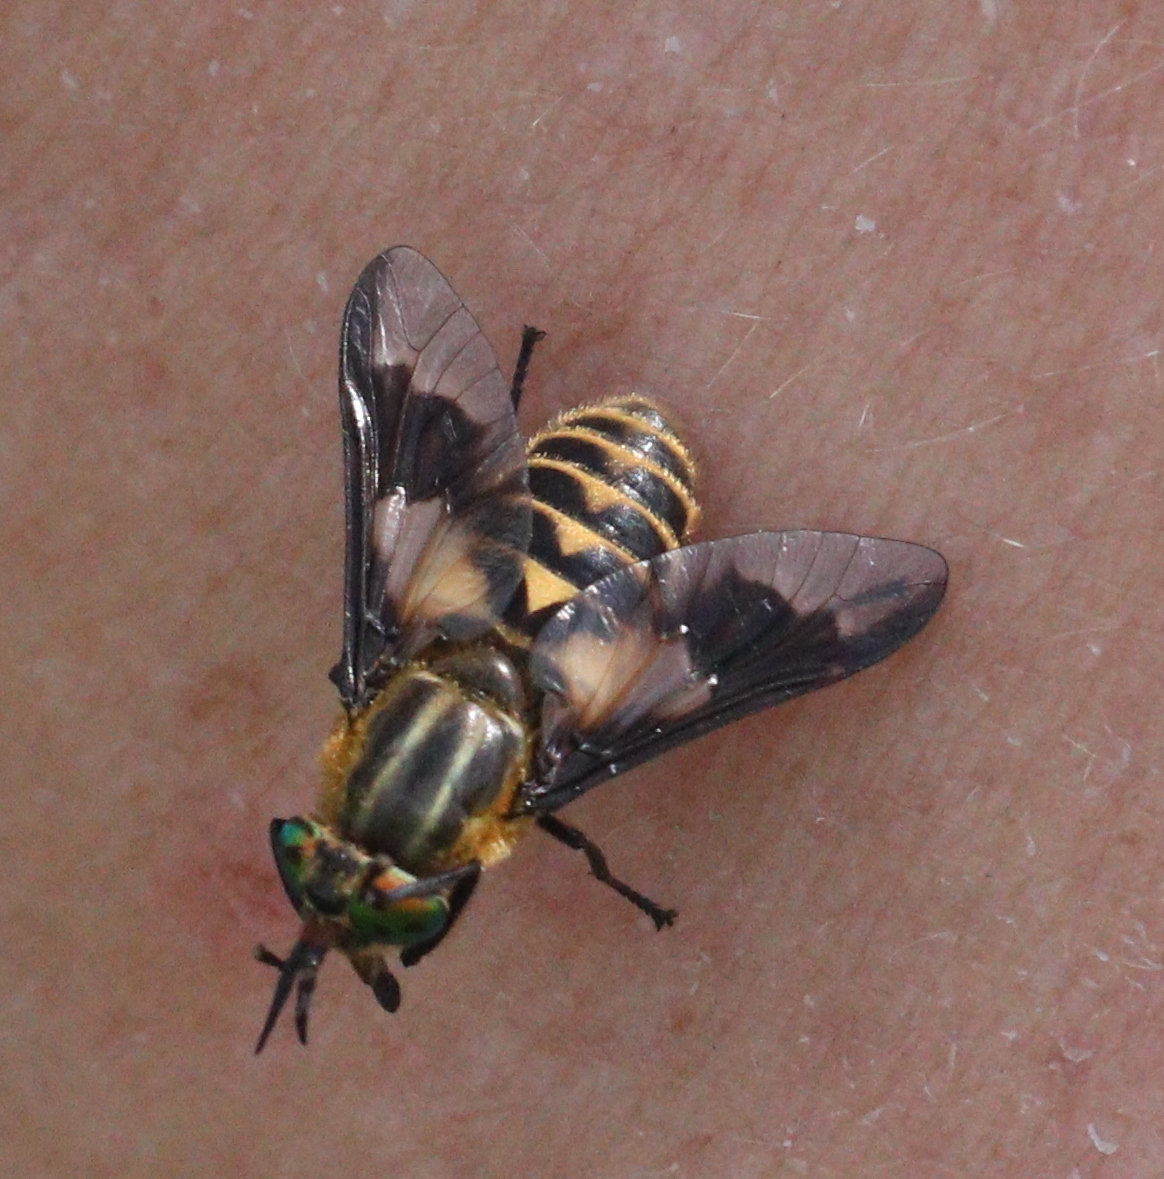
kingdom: Animalia
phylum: Arthropoda
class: Insecta
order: Diptera
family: Tabanidae
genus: Chrysops
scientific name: Chrysops divaricatus
